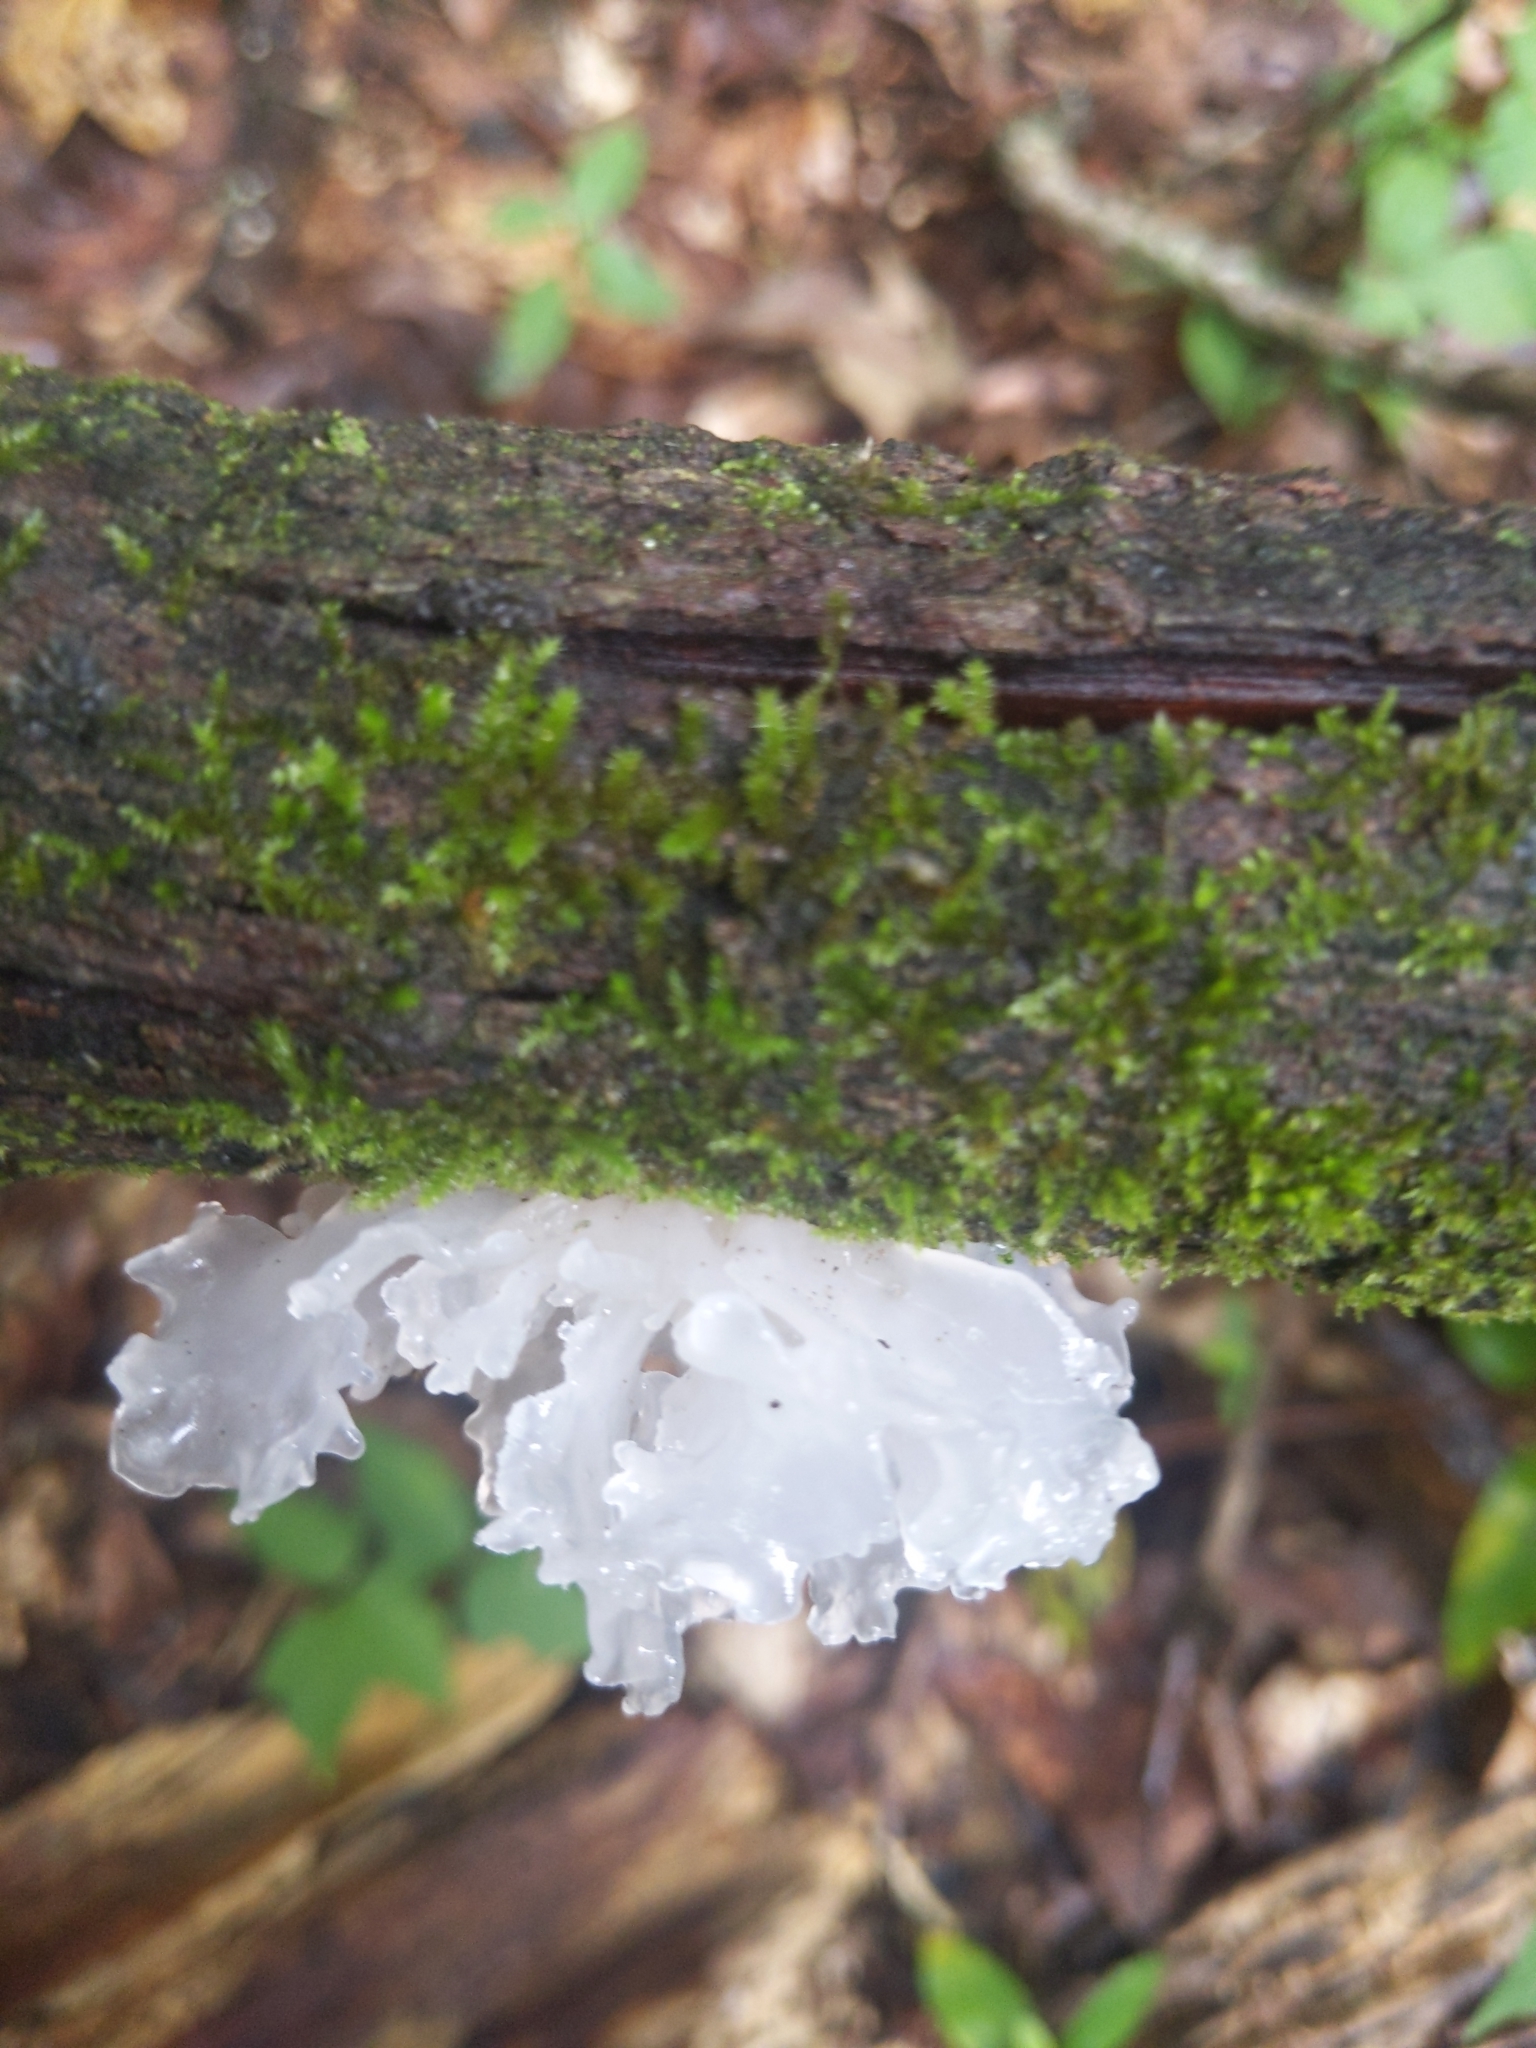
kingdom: Fungi
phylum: Basidiomycota
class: Tremellomycetes
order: Tremellales
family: Tremellaceae
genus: Tremella
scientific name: Tremella fuciformis
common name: Snow fungus
